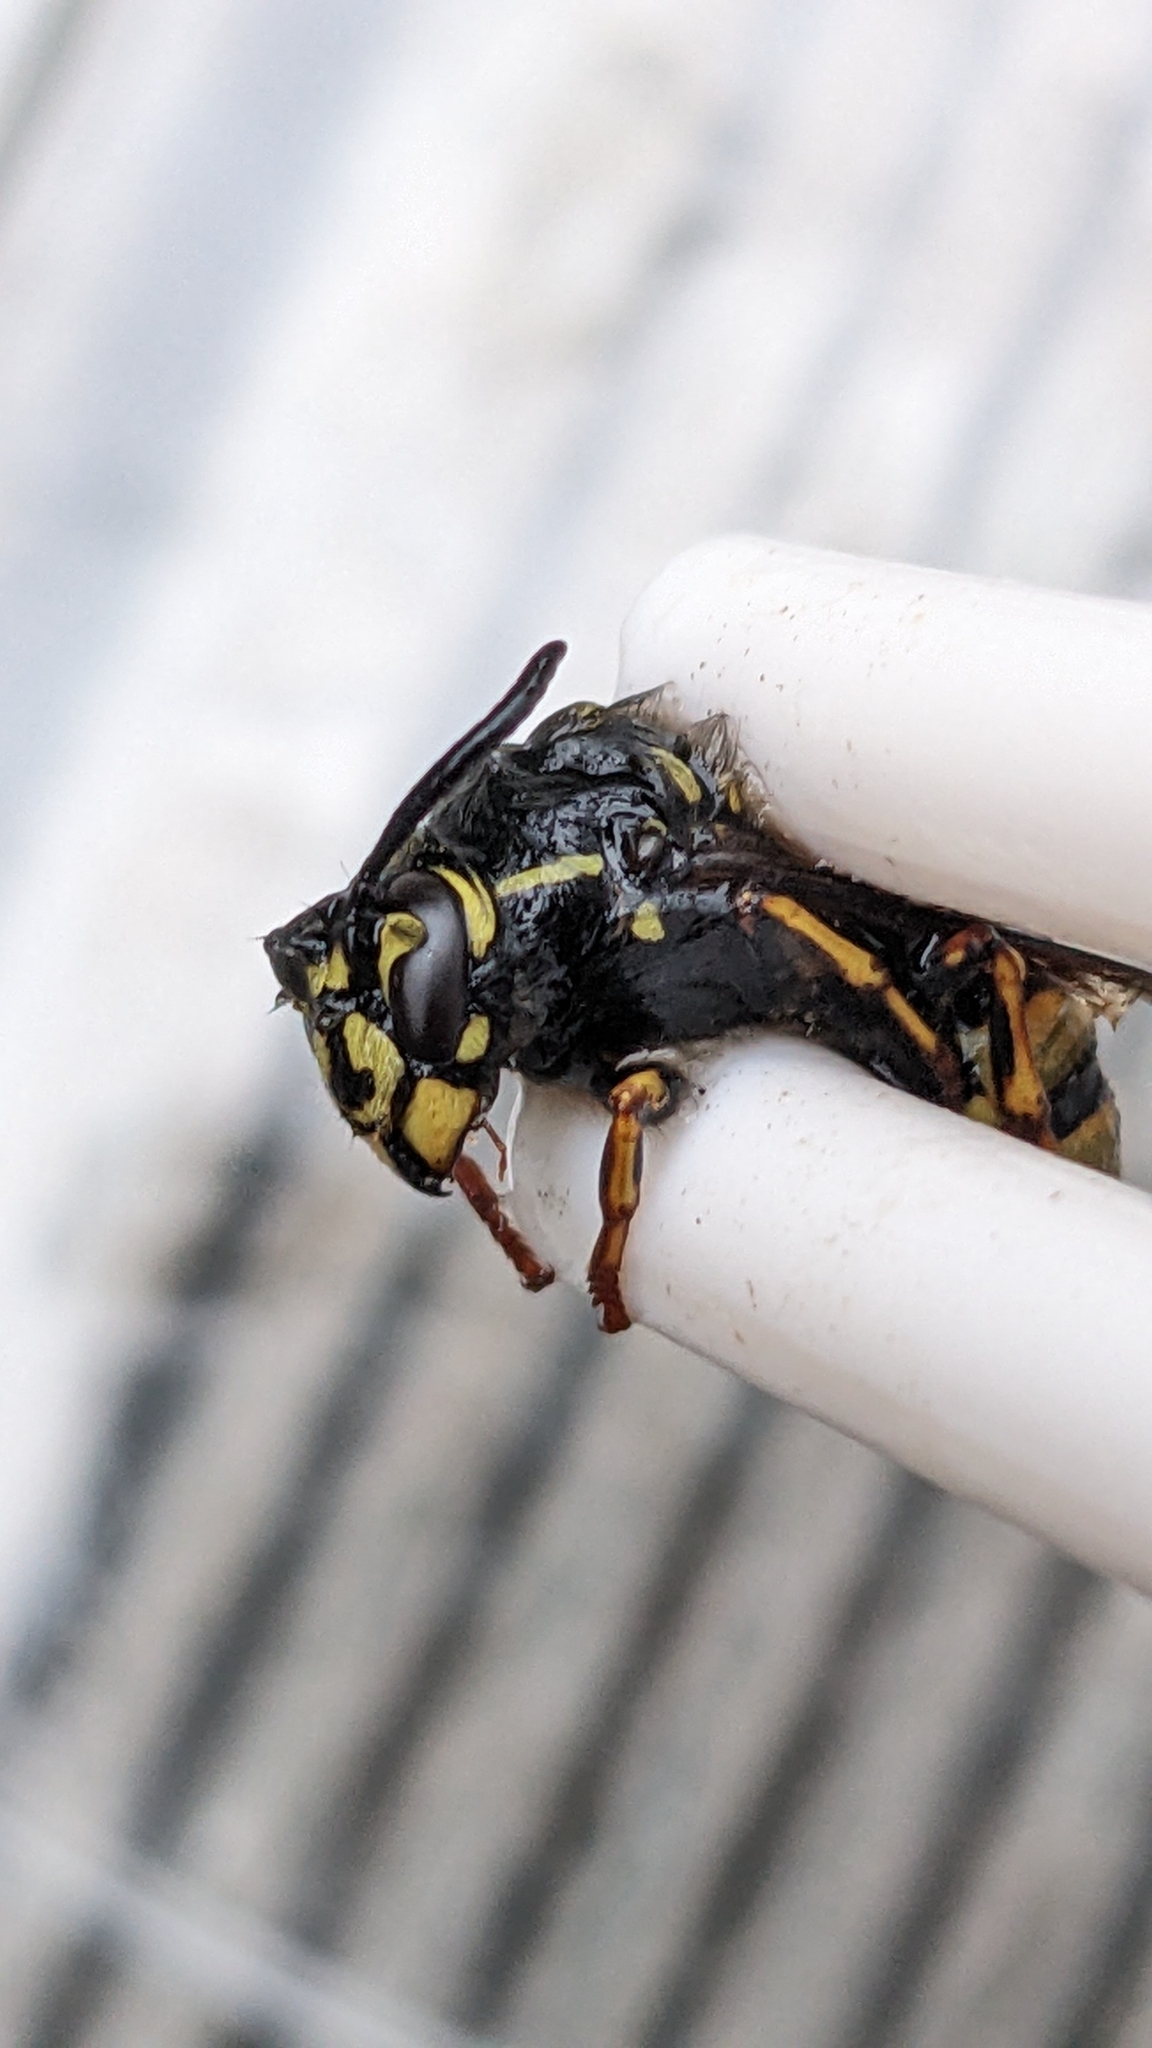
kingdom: Animalia
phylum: Arthropoda
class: Insecta
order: Hymenoptera
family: Vespidae
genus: Vespula
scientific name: Vespula vulgaris
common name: Common wasp
